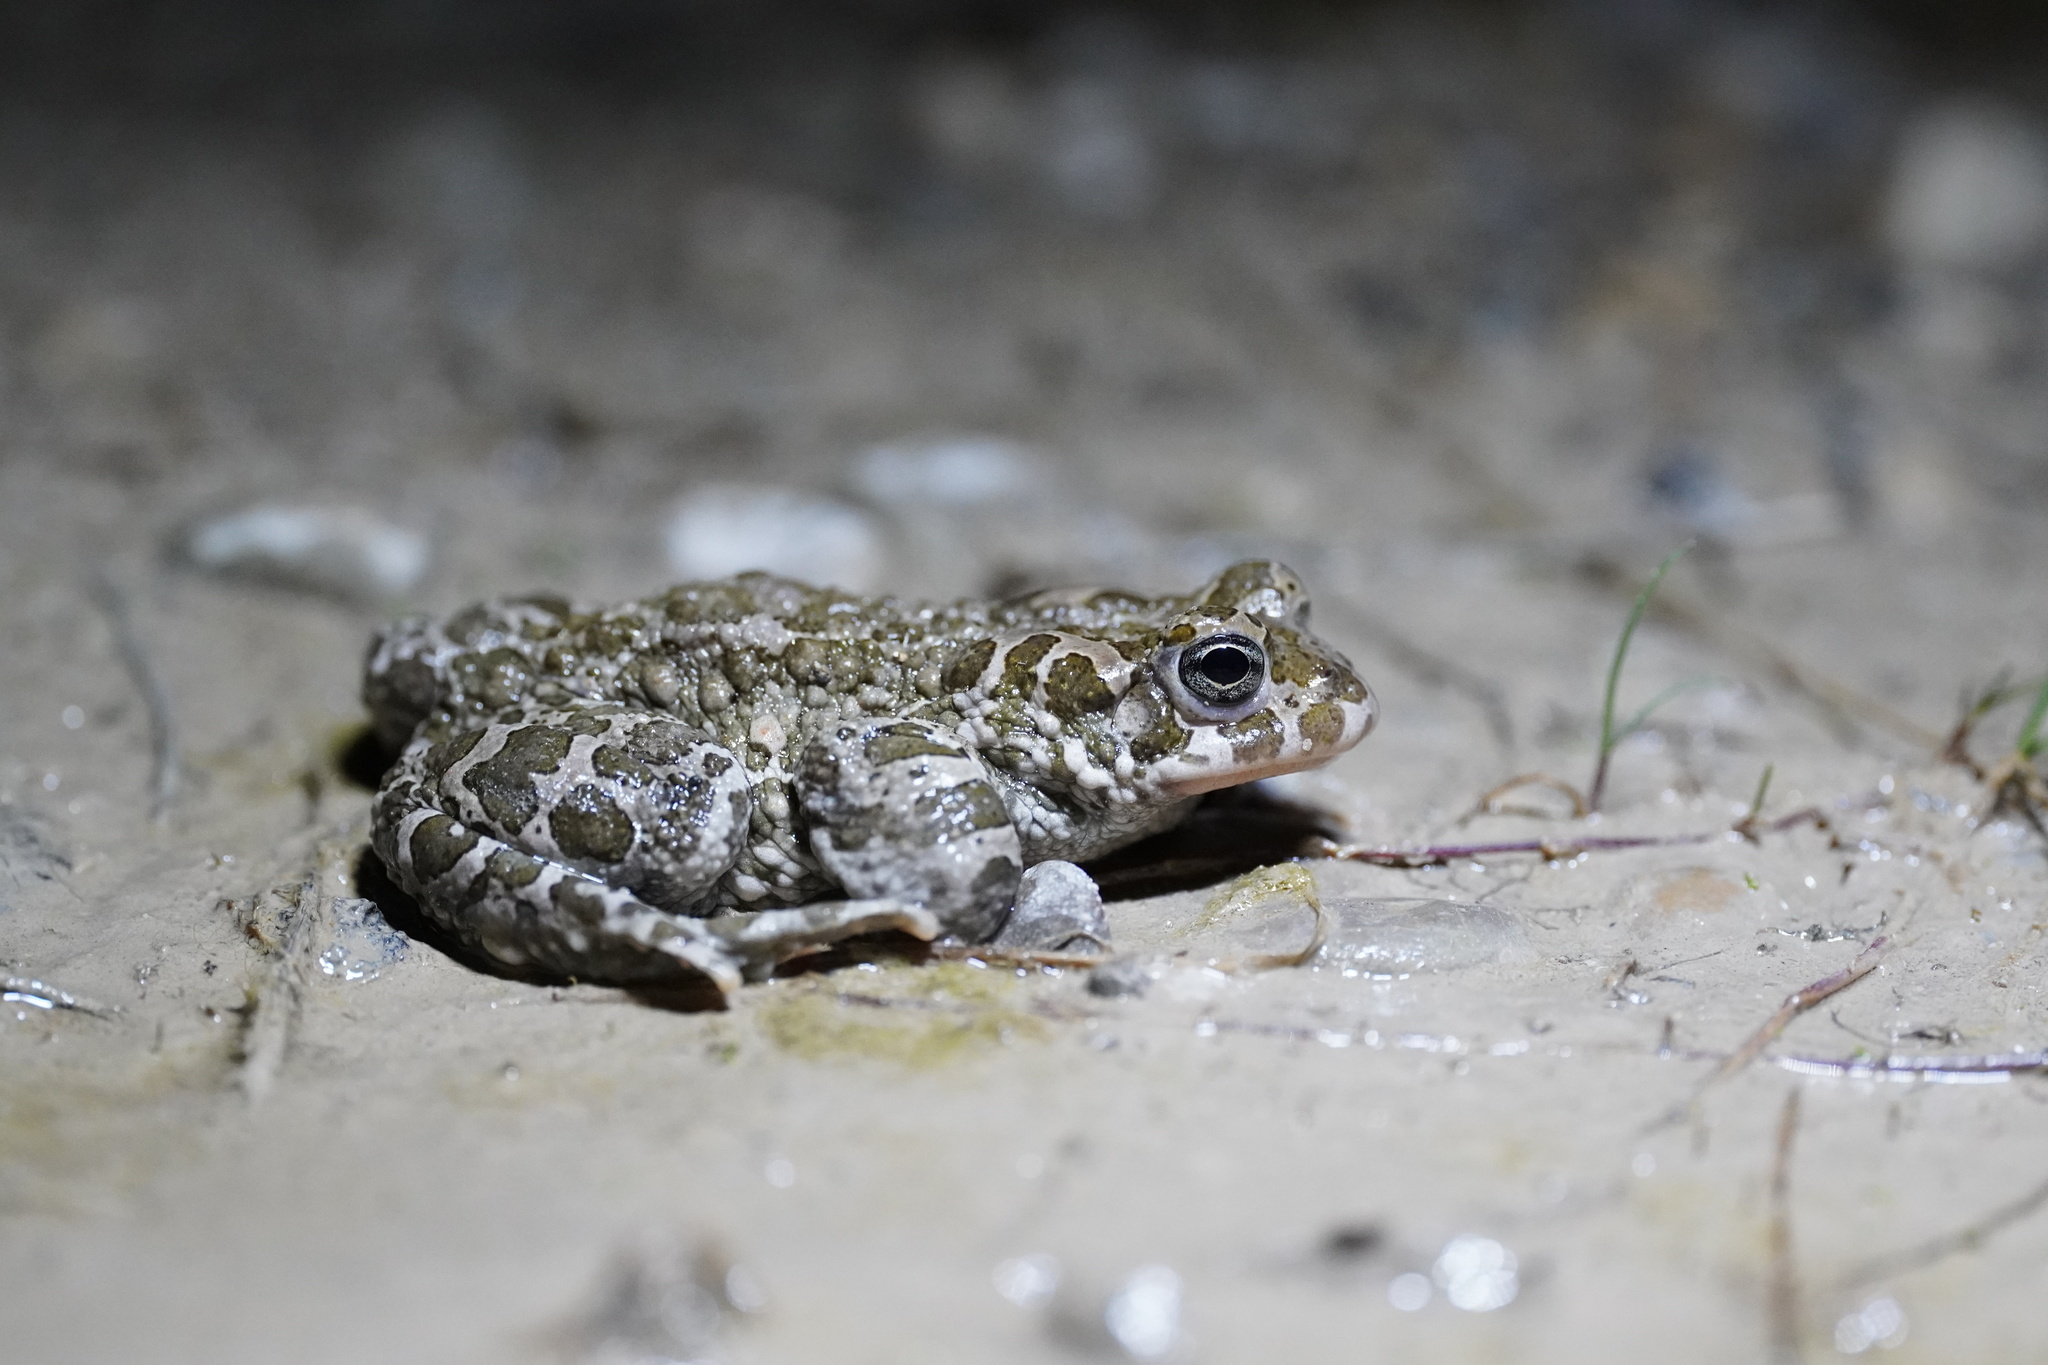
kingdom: Animalia
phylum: Chordata
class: Amphibia
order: Anura
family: Bufonidae
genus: Bufotes
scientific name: Bufotes viridis
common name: European green toad
